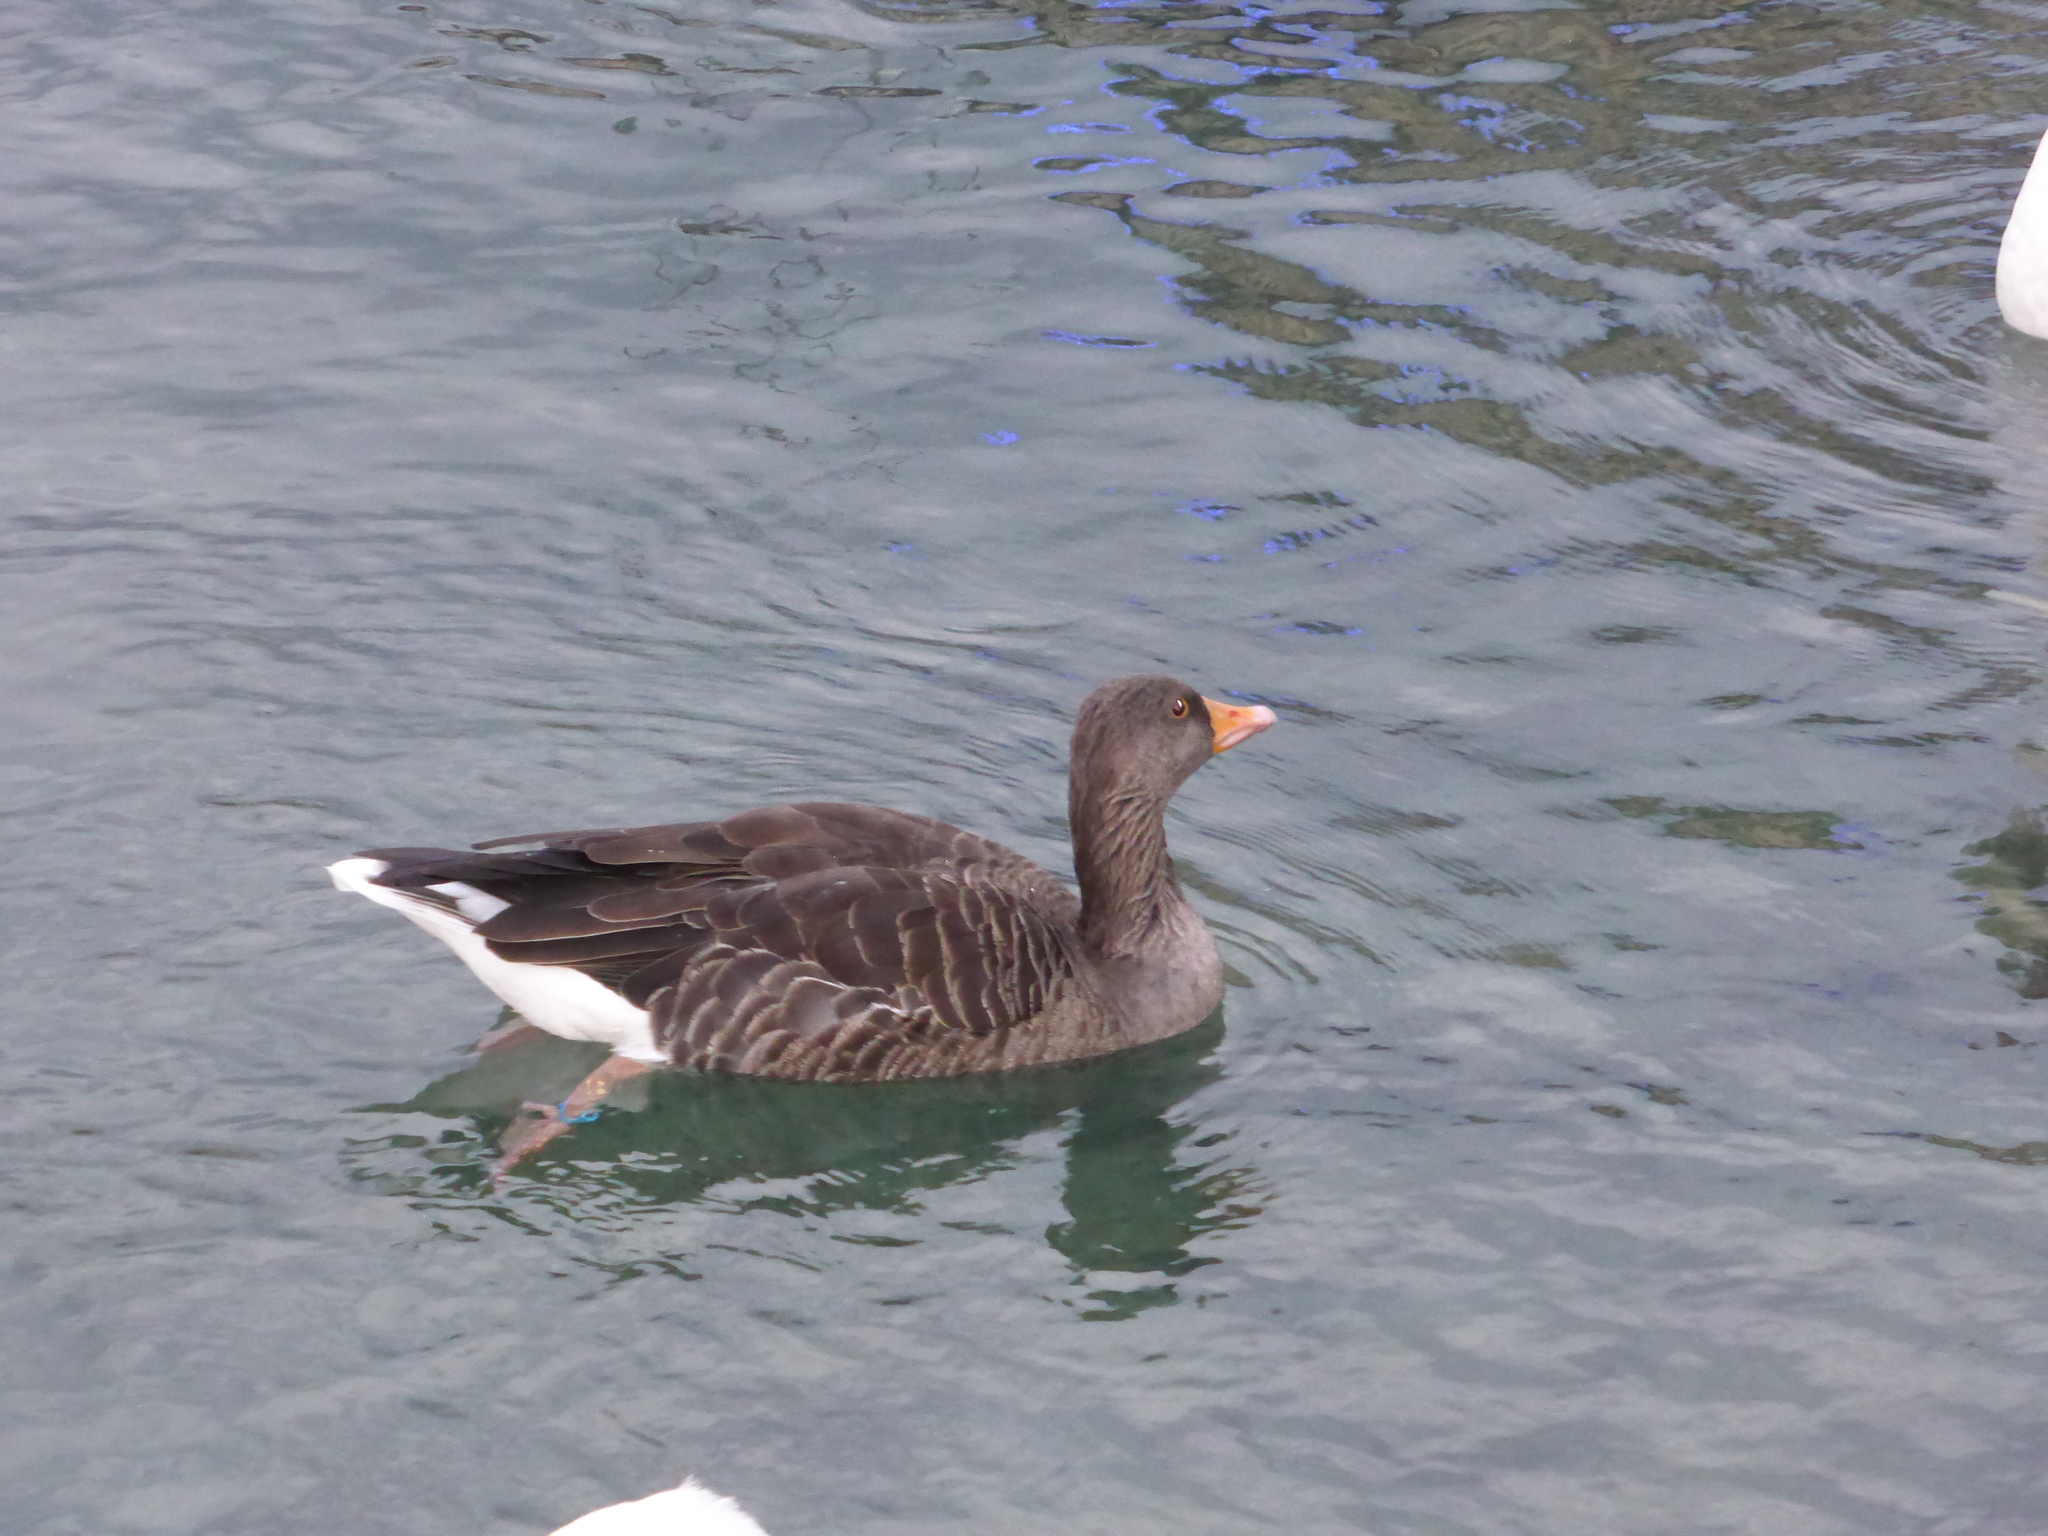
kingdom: Animalia
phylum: Chordata
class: Aves
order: Anseriformes
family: Anatidae
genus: Anser
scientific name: Anser anser
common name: Greylag goose
